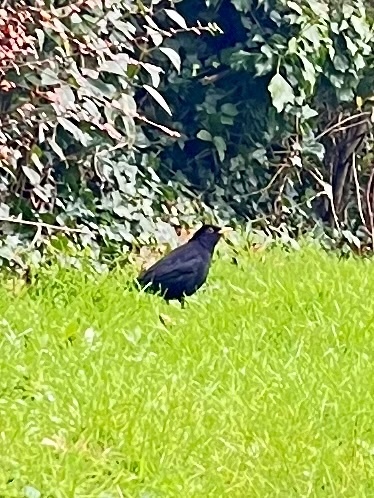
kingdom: Animalia
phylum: Chordata
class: Aves
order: Passeriformes
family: Turdidae
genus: Turdus
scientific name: Turdus merula
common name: Common blackbird
